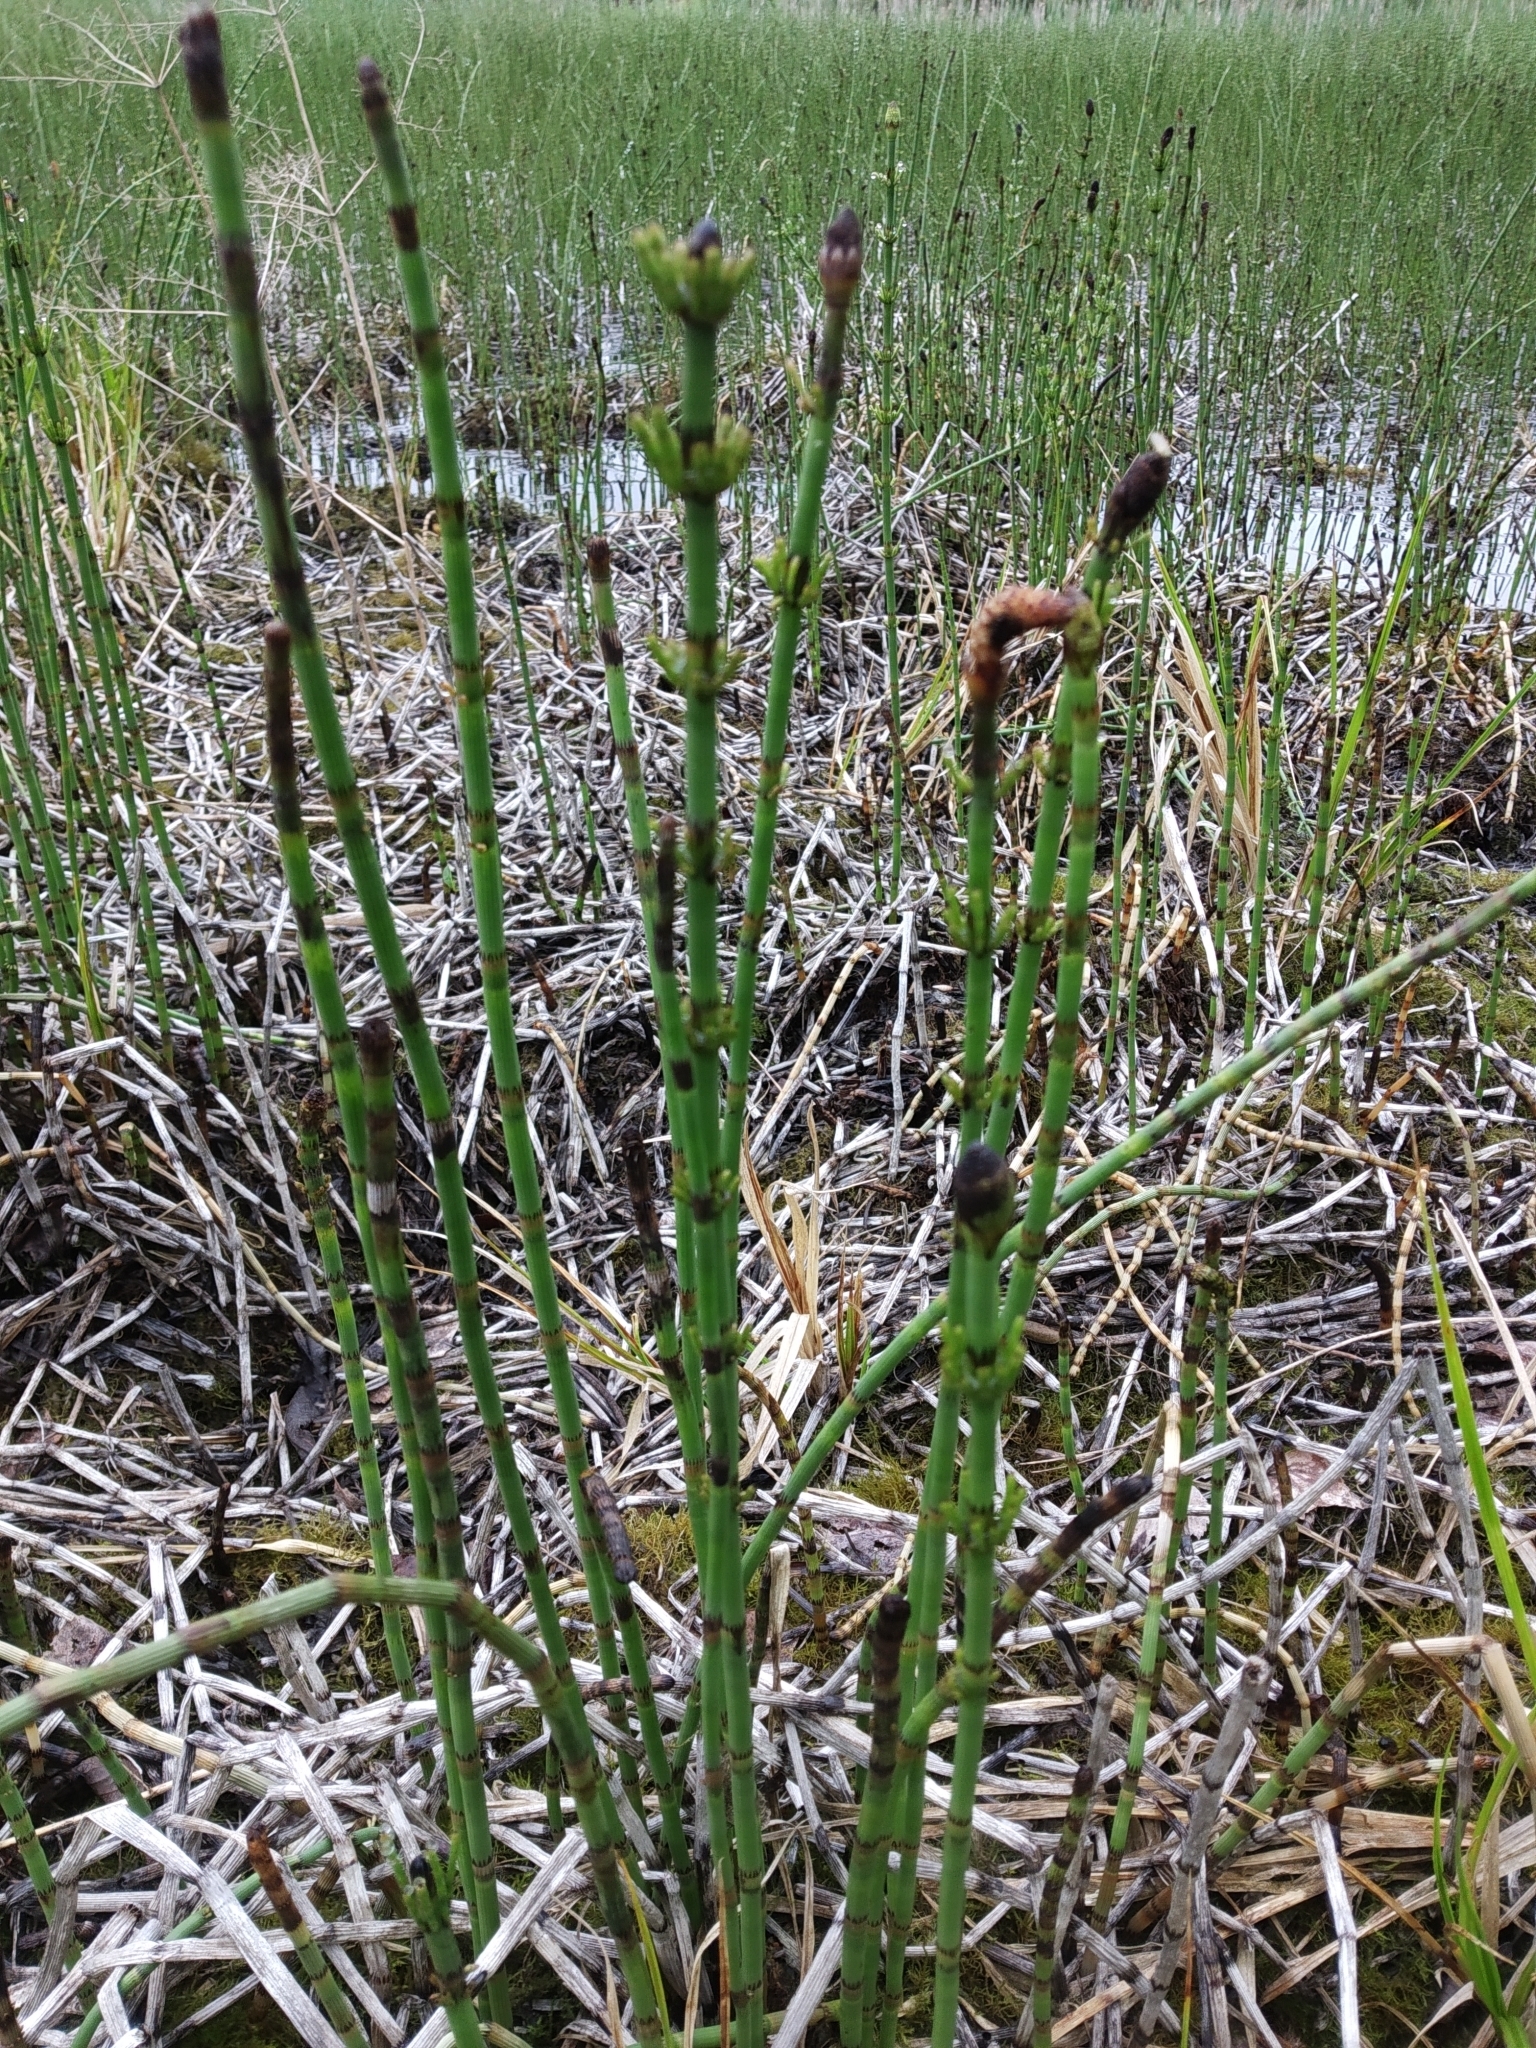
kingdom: Plantae
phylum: Tracheophyta
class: Polypodiopsida
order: Equisetales
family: Equisetaceae
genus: Equisetum
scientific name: Equisetum fluviatile
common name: Water horsetail
